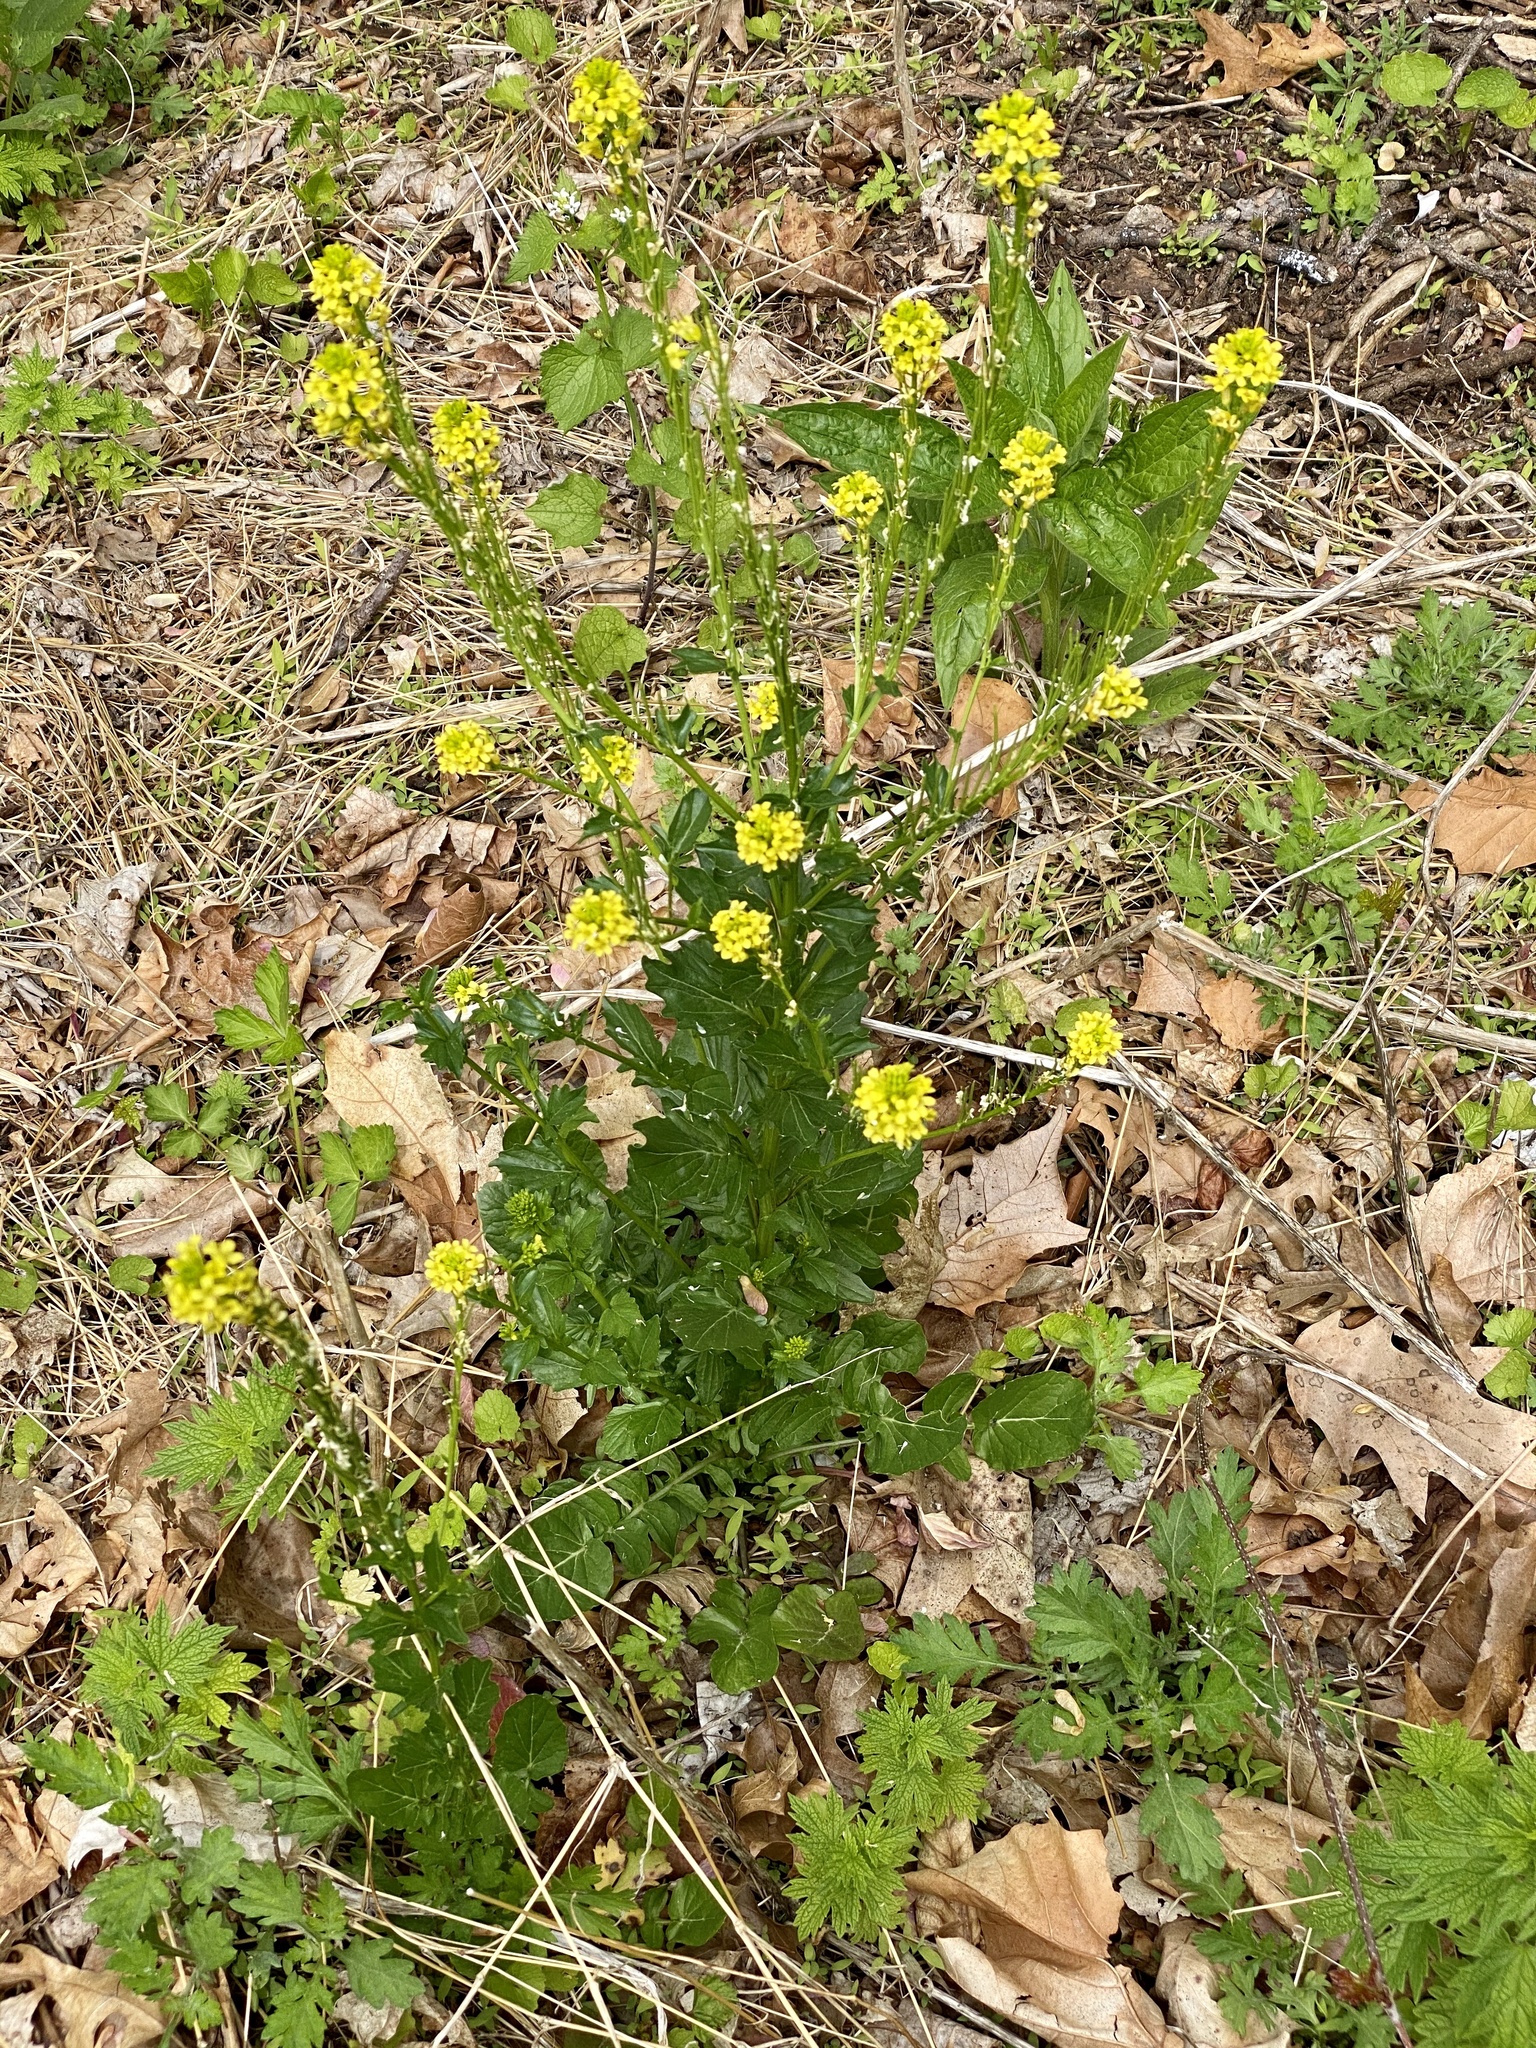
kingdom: Plantae
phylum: Tracheophyta
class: Magnoliopsida
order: Brassicales
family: Brassicaceae
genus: Barbarea
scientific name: Barbarea vulgaris
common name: Cressy-greens
